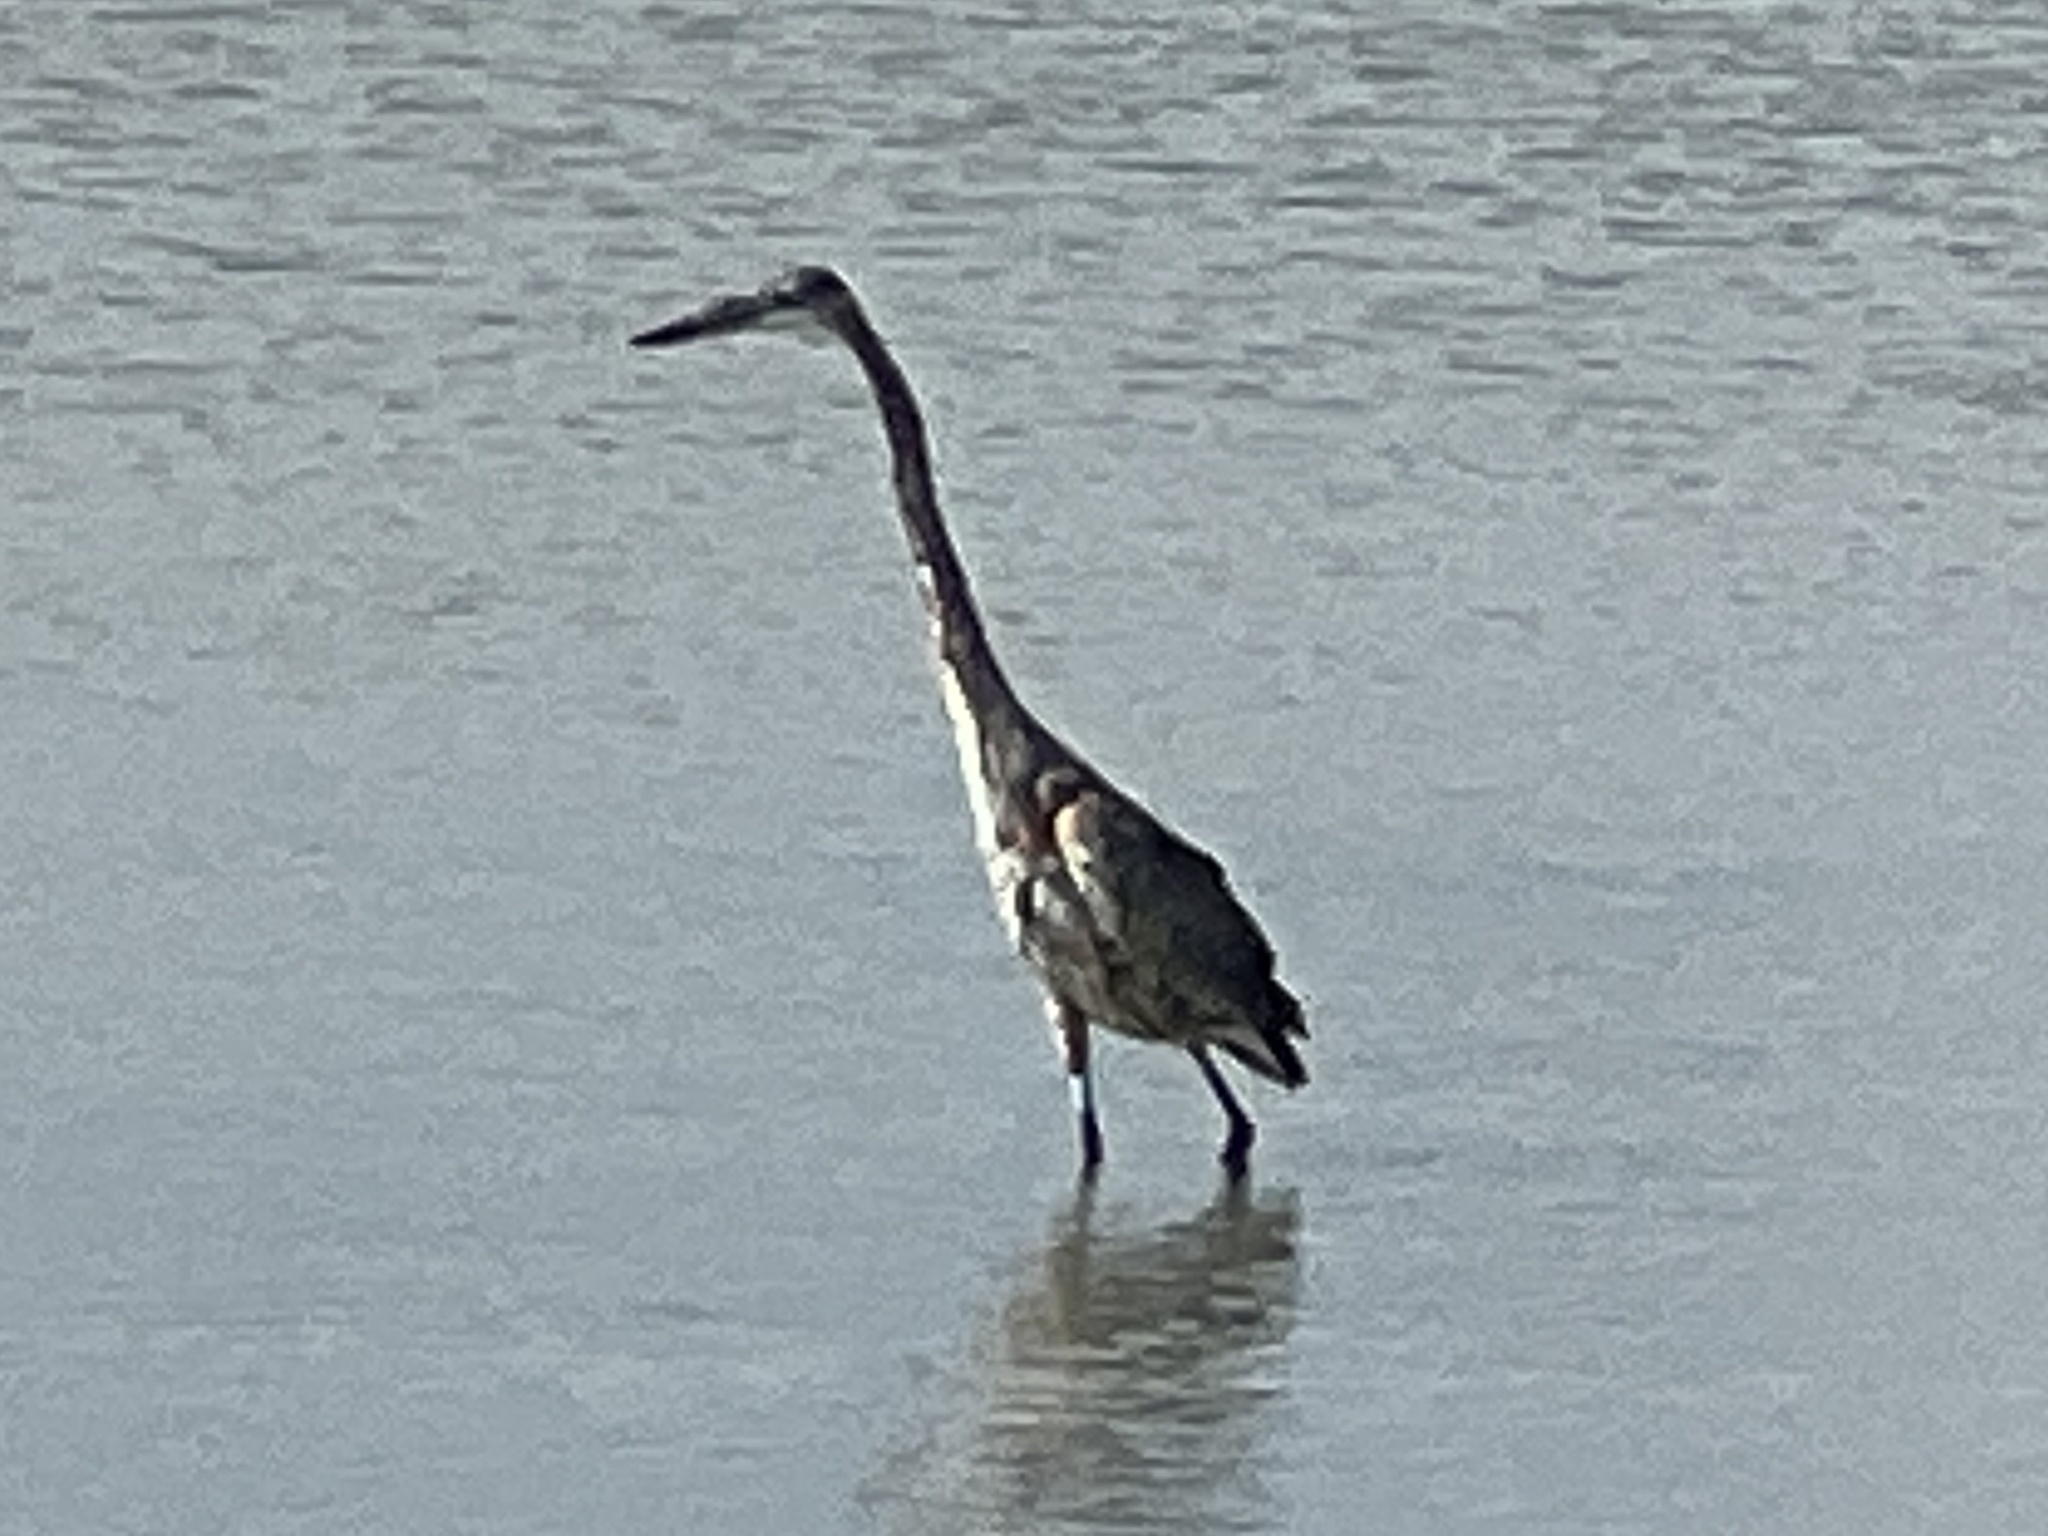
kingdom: Animalia
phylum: Chordata
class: Aves
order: Pelecaniformes
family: Ardeidae
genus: Ardea
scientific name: Ardea herodias
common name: Great blue heron
